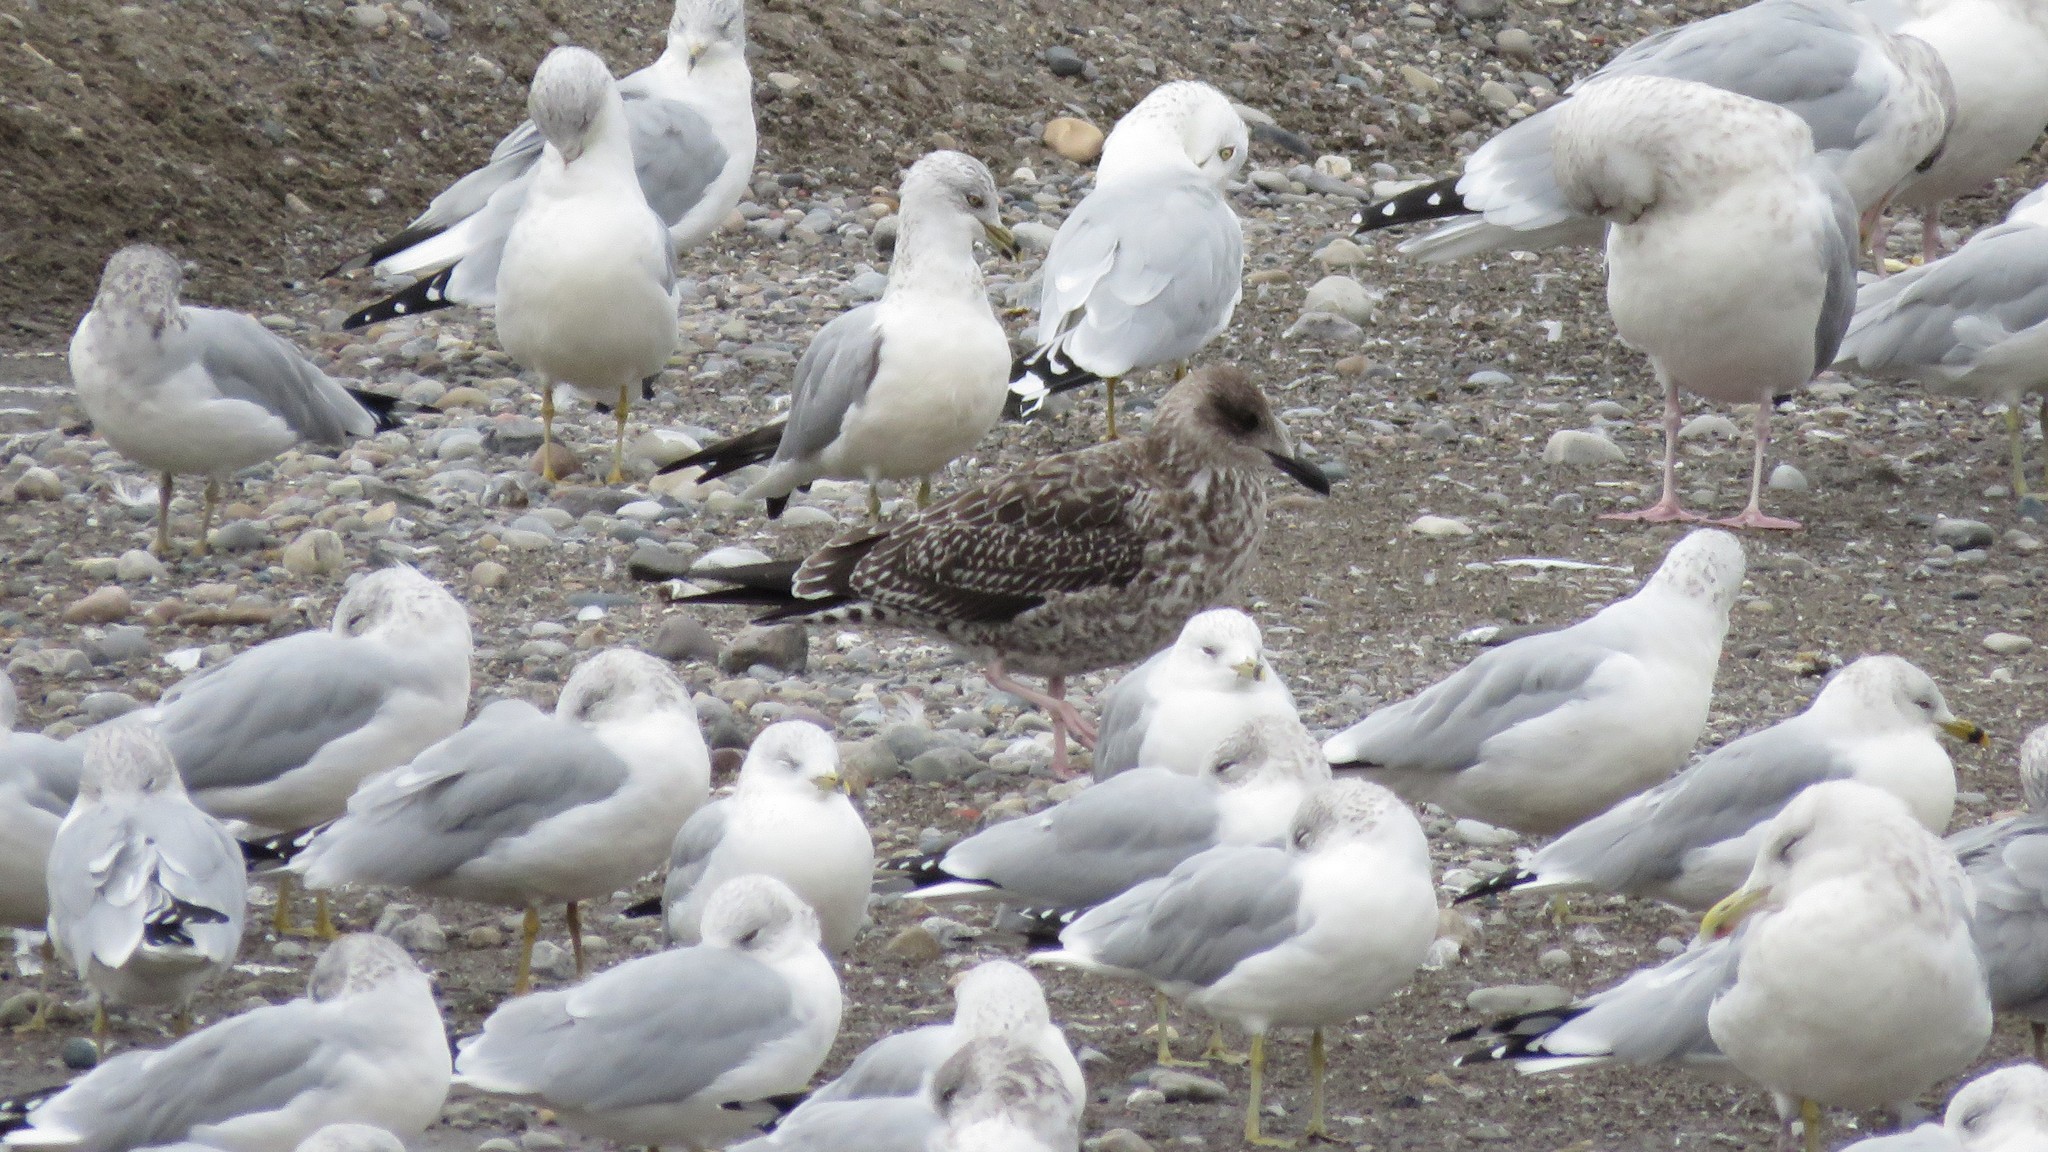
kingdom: Animalia
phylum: Chordata
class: Aves
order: Charadriiformes
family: Laridae
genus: Larus
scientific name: Larus fuscus
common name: Lesser black-backed gull
